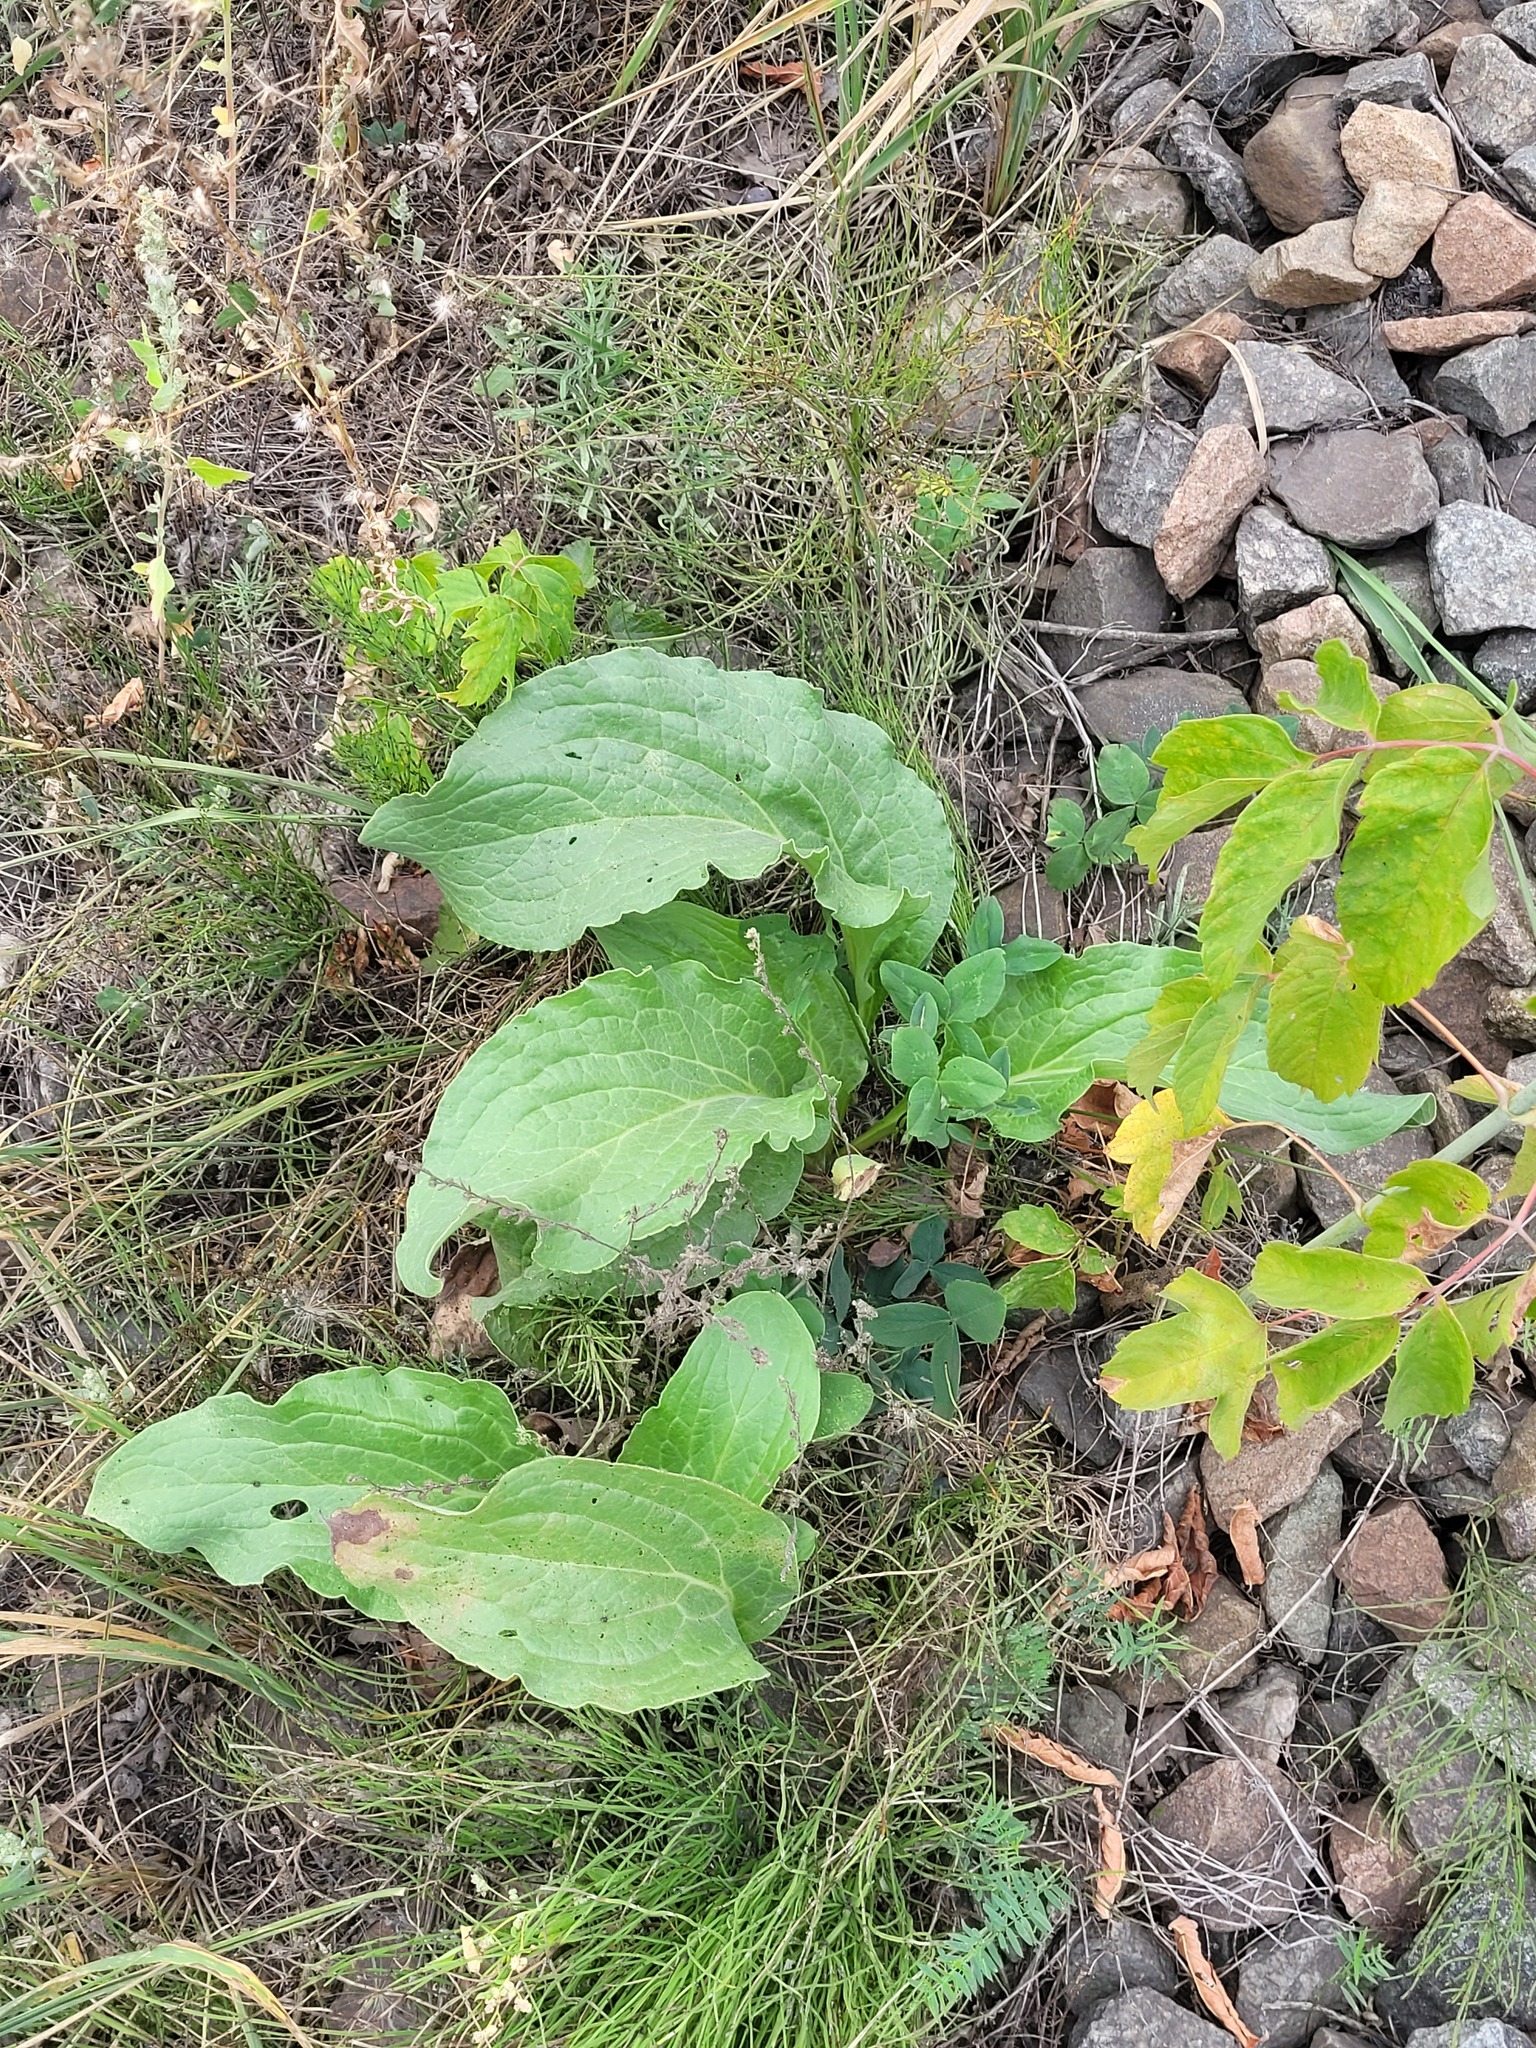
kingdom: Plantae
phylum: Tracheophyta
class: Magnoliopsida
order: Boraginales
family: Boraginaceae
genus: Cynoglossum
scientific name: Cynoglossum officinale
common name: Hound's-tongue
